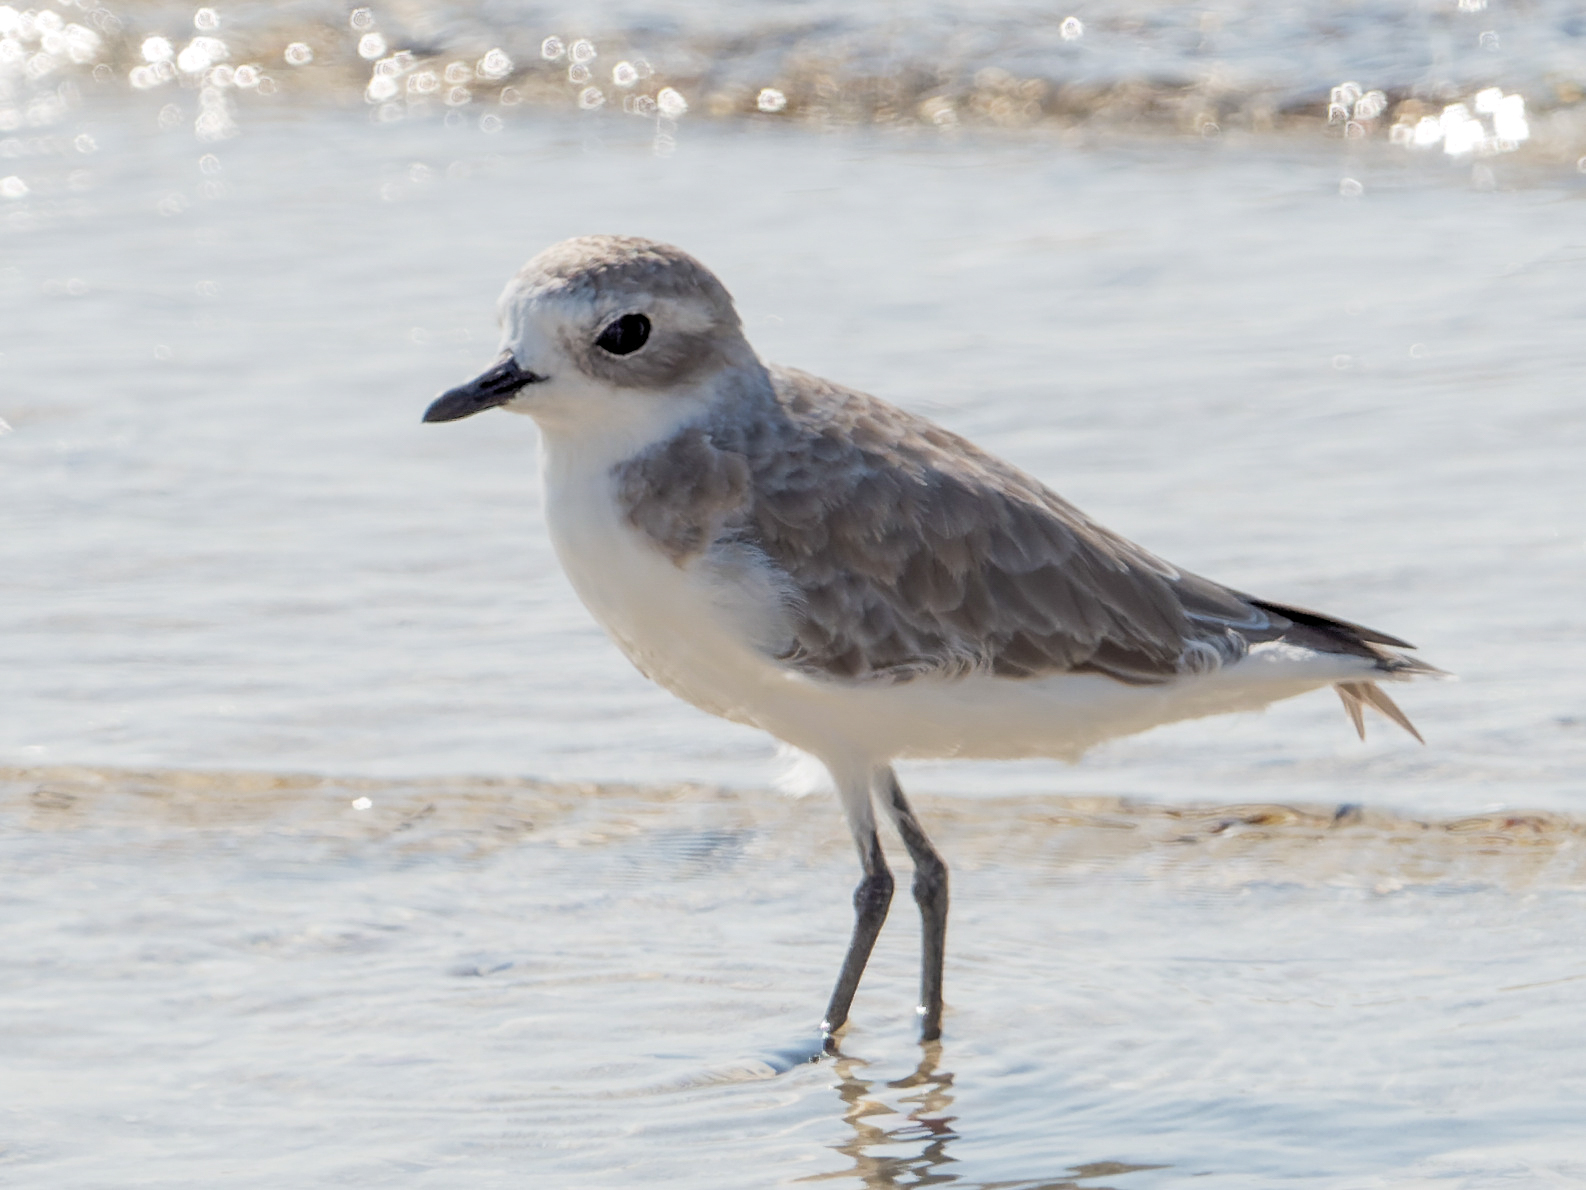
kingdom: Animalia
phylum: Chordata
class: Aves
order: Charadriiformes
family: Charadriidae
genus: Anarhynchus
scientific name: Anarhynchus
